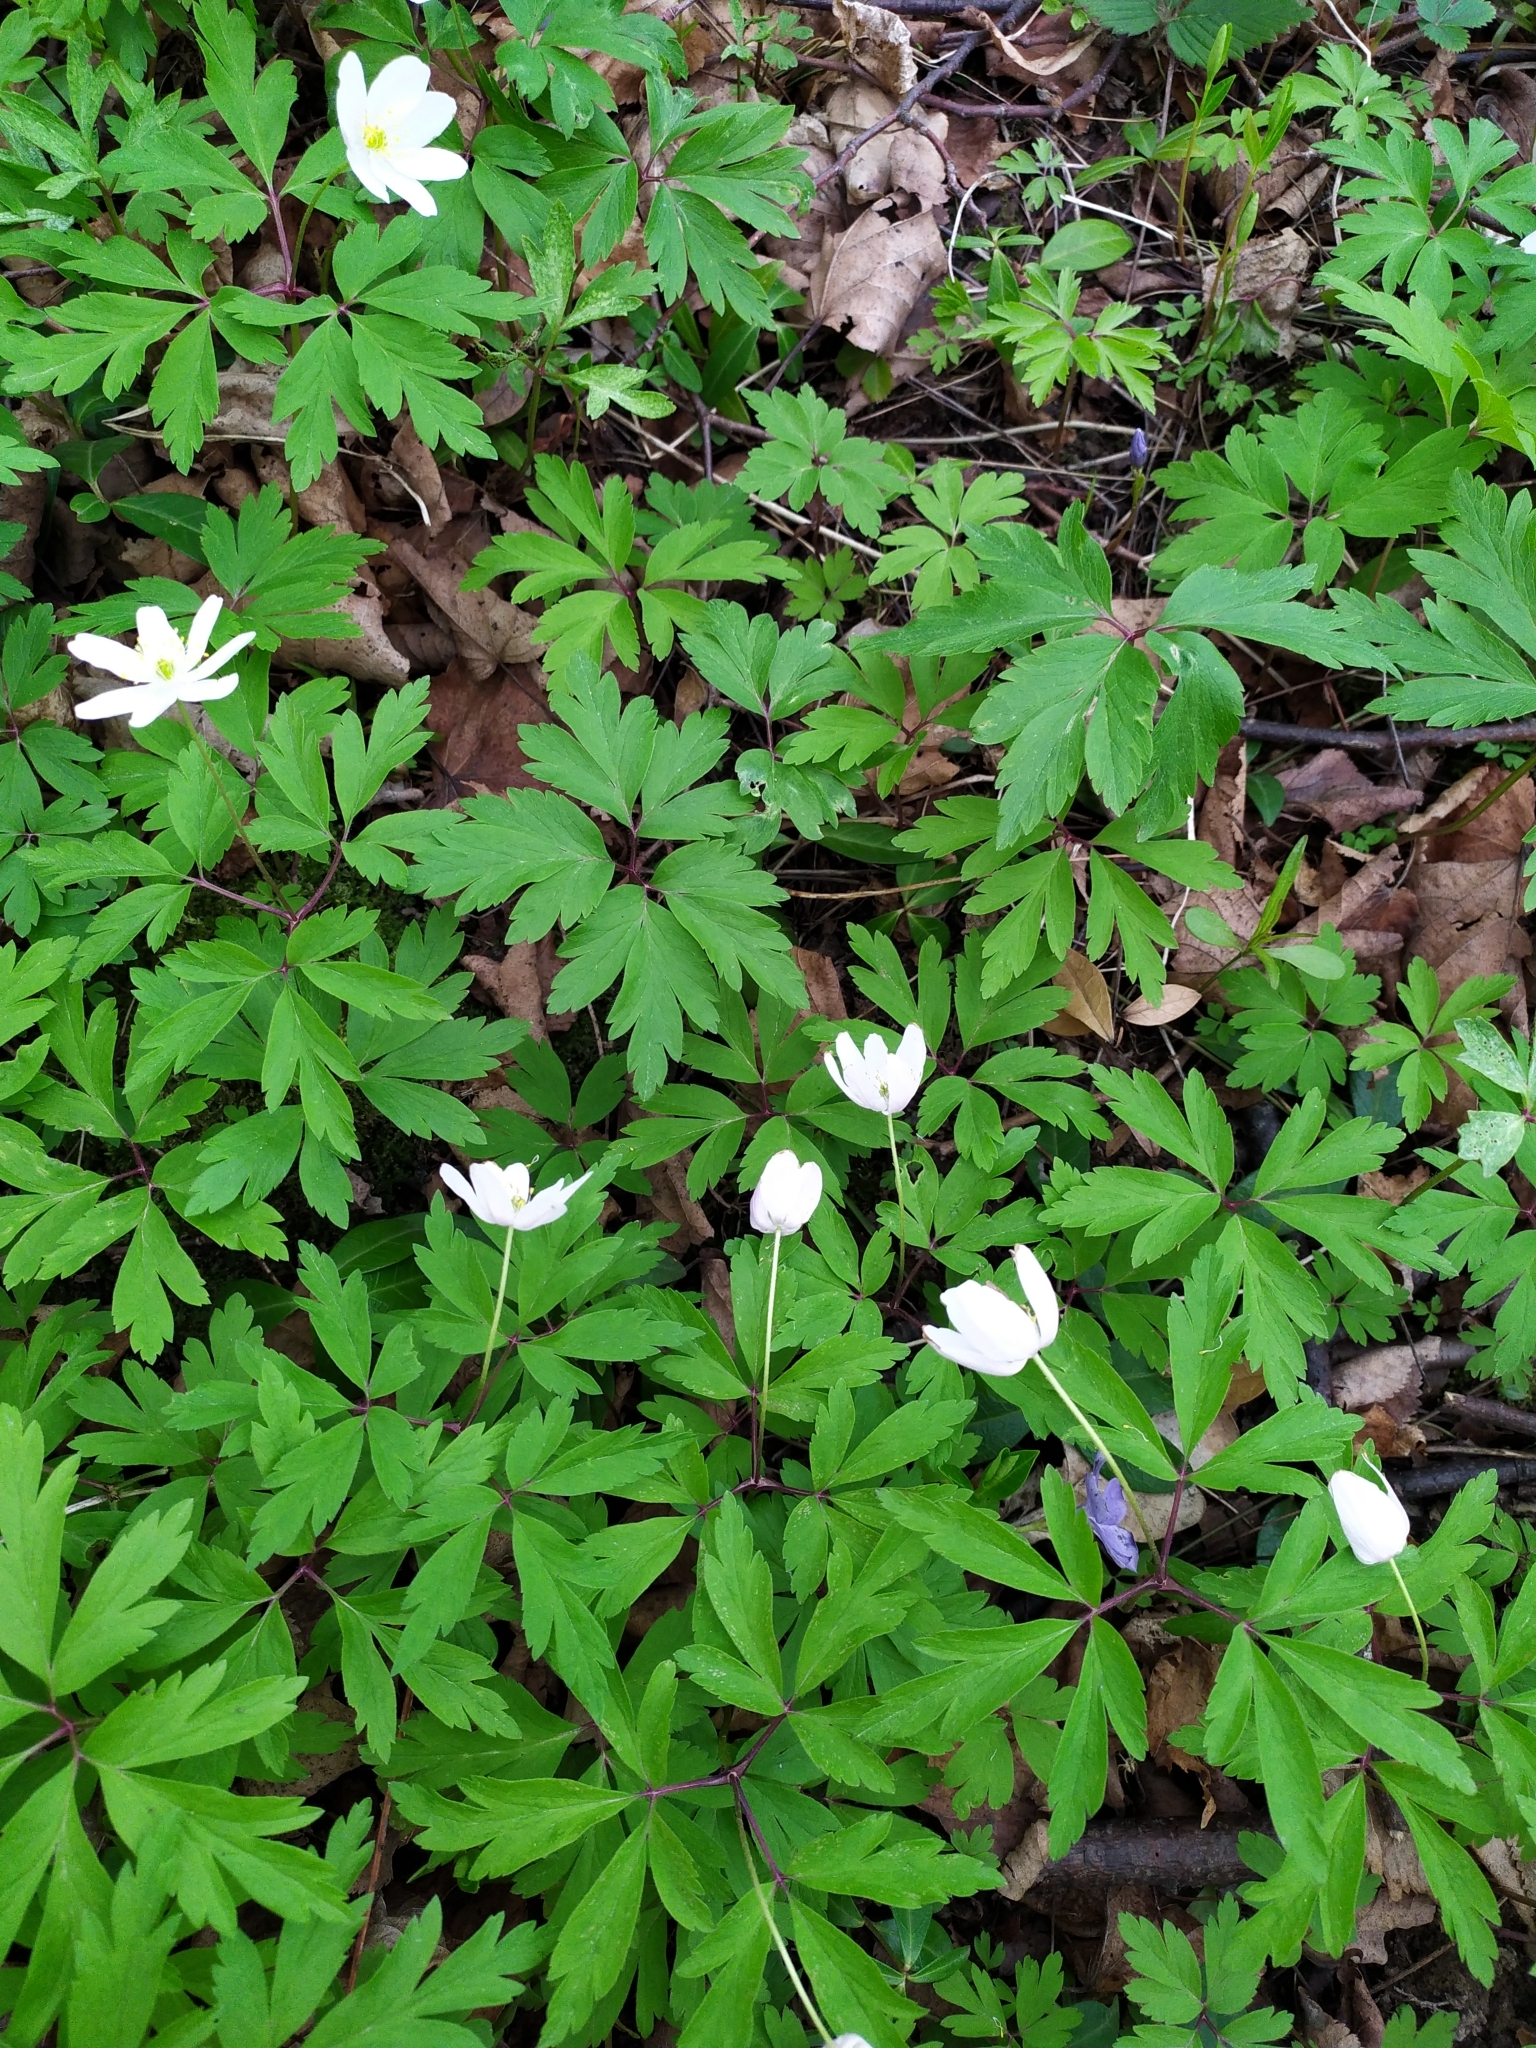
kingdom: Plantae
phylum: Tracheophyta
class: Magnoliopsida
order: Ranunculales
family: Ranunculaceae
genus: Anemone
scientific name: Anemone nemorosa
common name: Wood anemone
